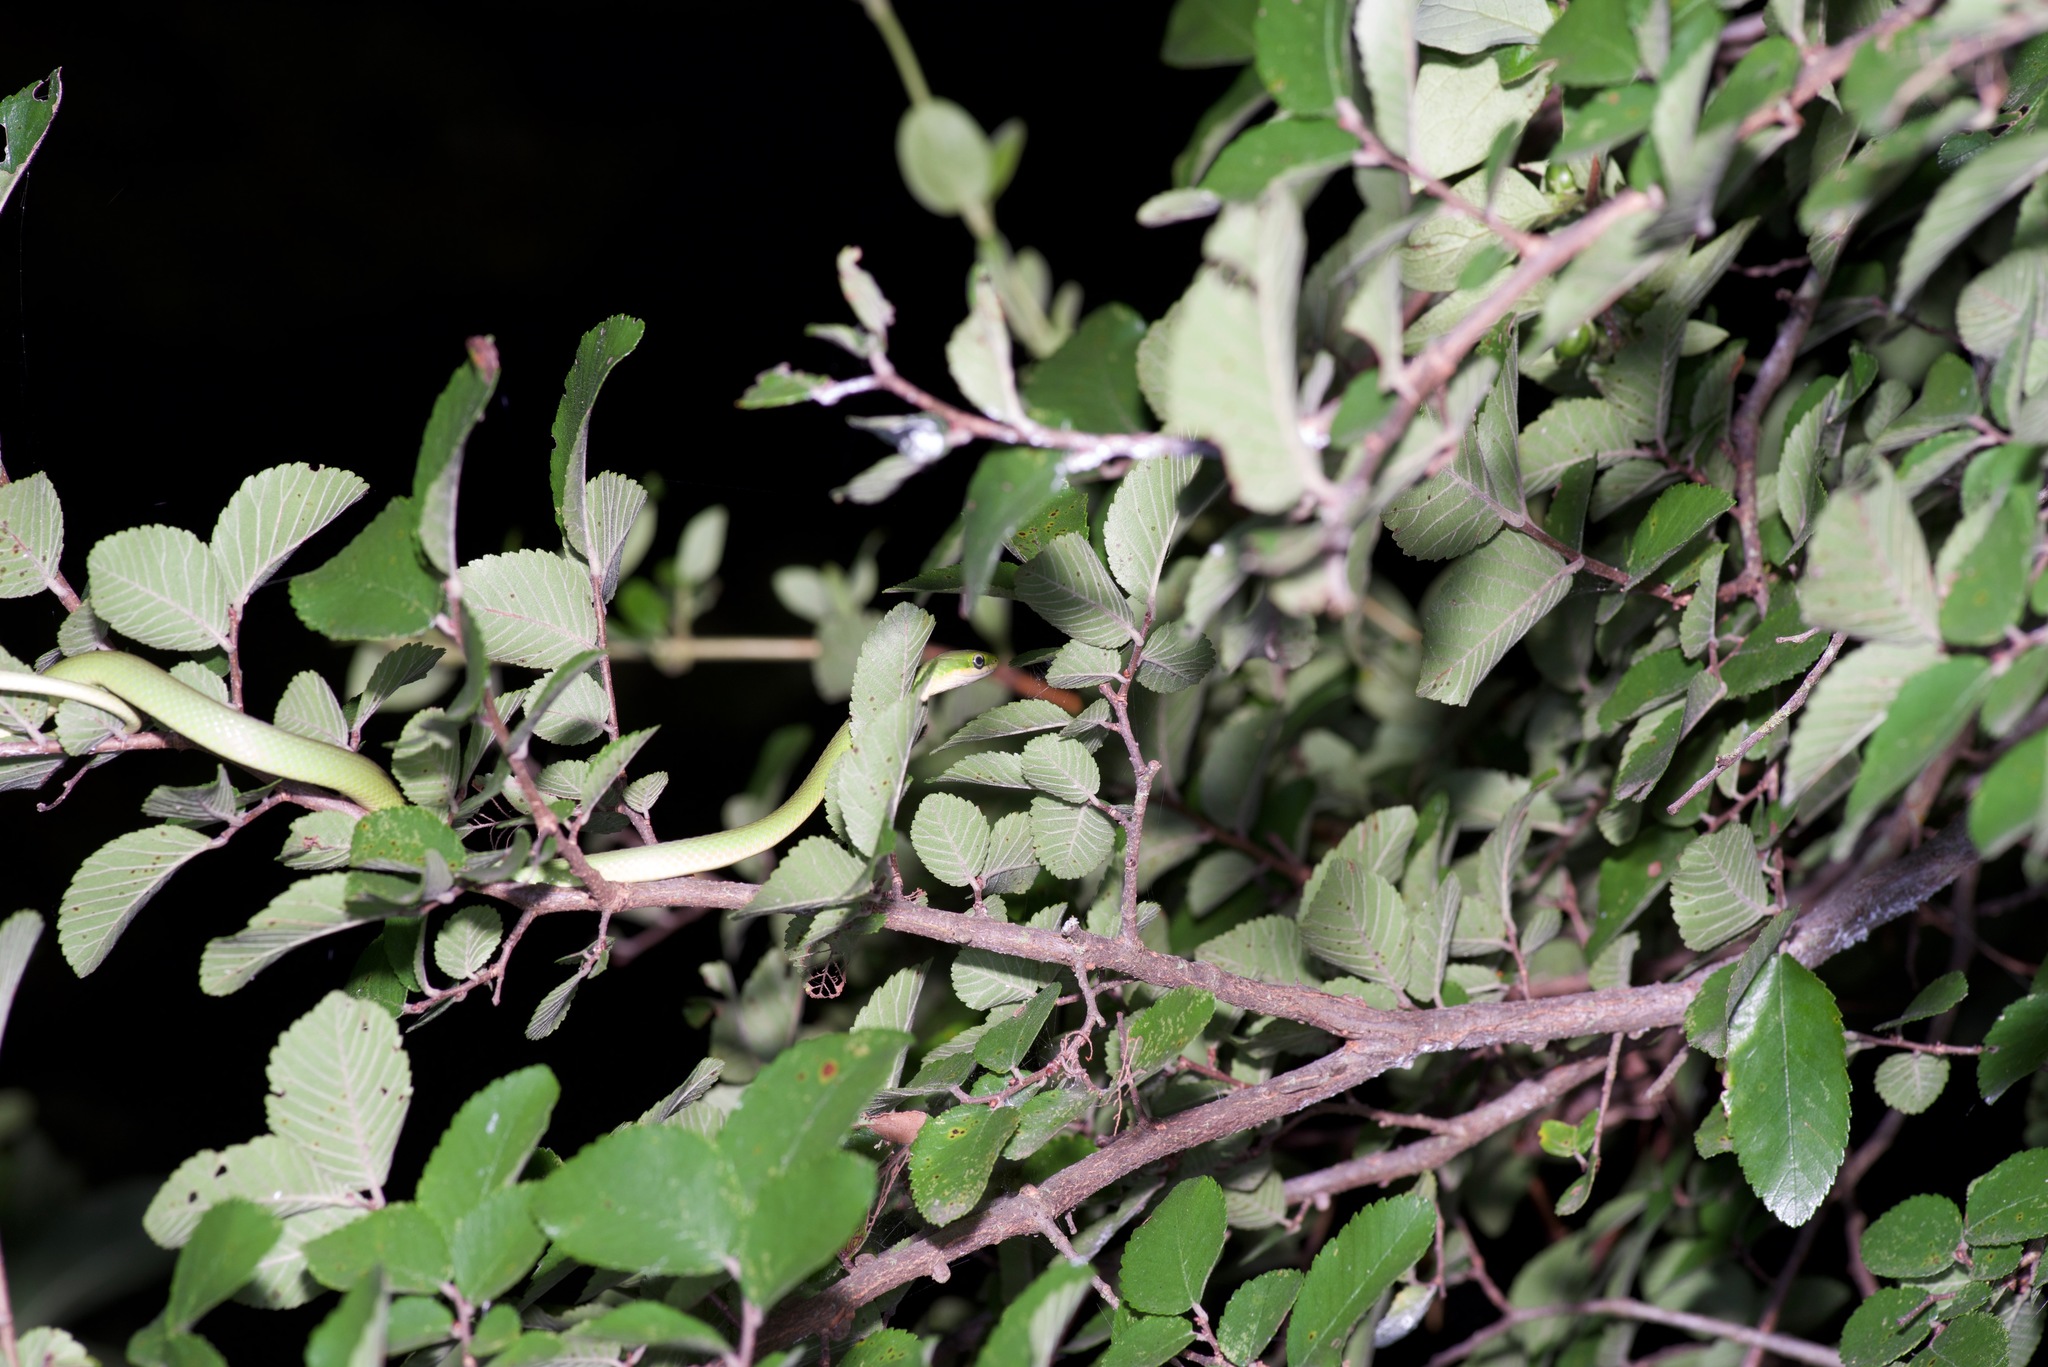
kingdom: Animalia
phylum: Chordata
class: Squamata
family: Colubridae
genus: Opheodrys
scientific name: Opheodrys aestivus
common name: Rough greensnake
